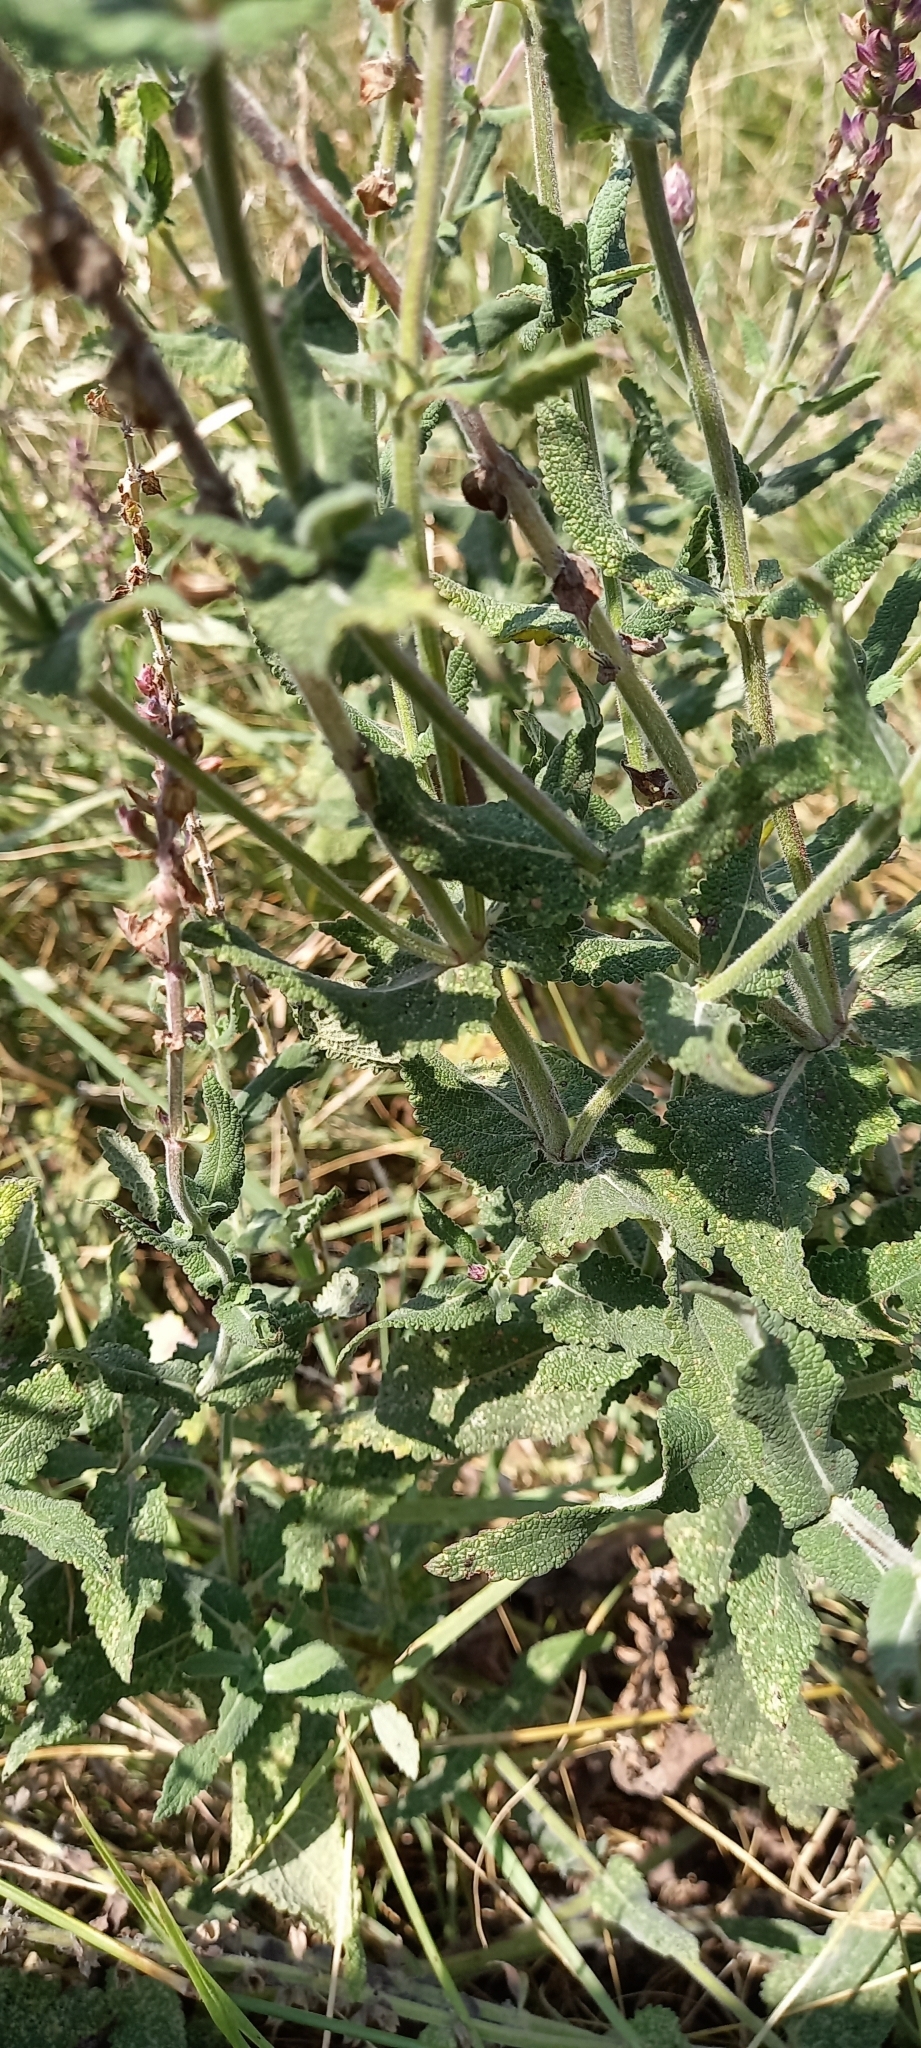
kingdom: Plantae
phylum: Tracheophyta
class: Magnoliopsida
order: Lamiales
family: Lamiaceae
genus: Salvia
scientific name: Salvia nemorosa
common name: Balkan clary
